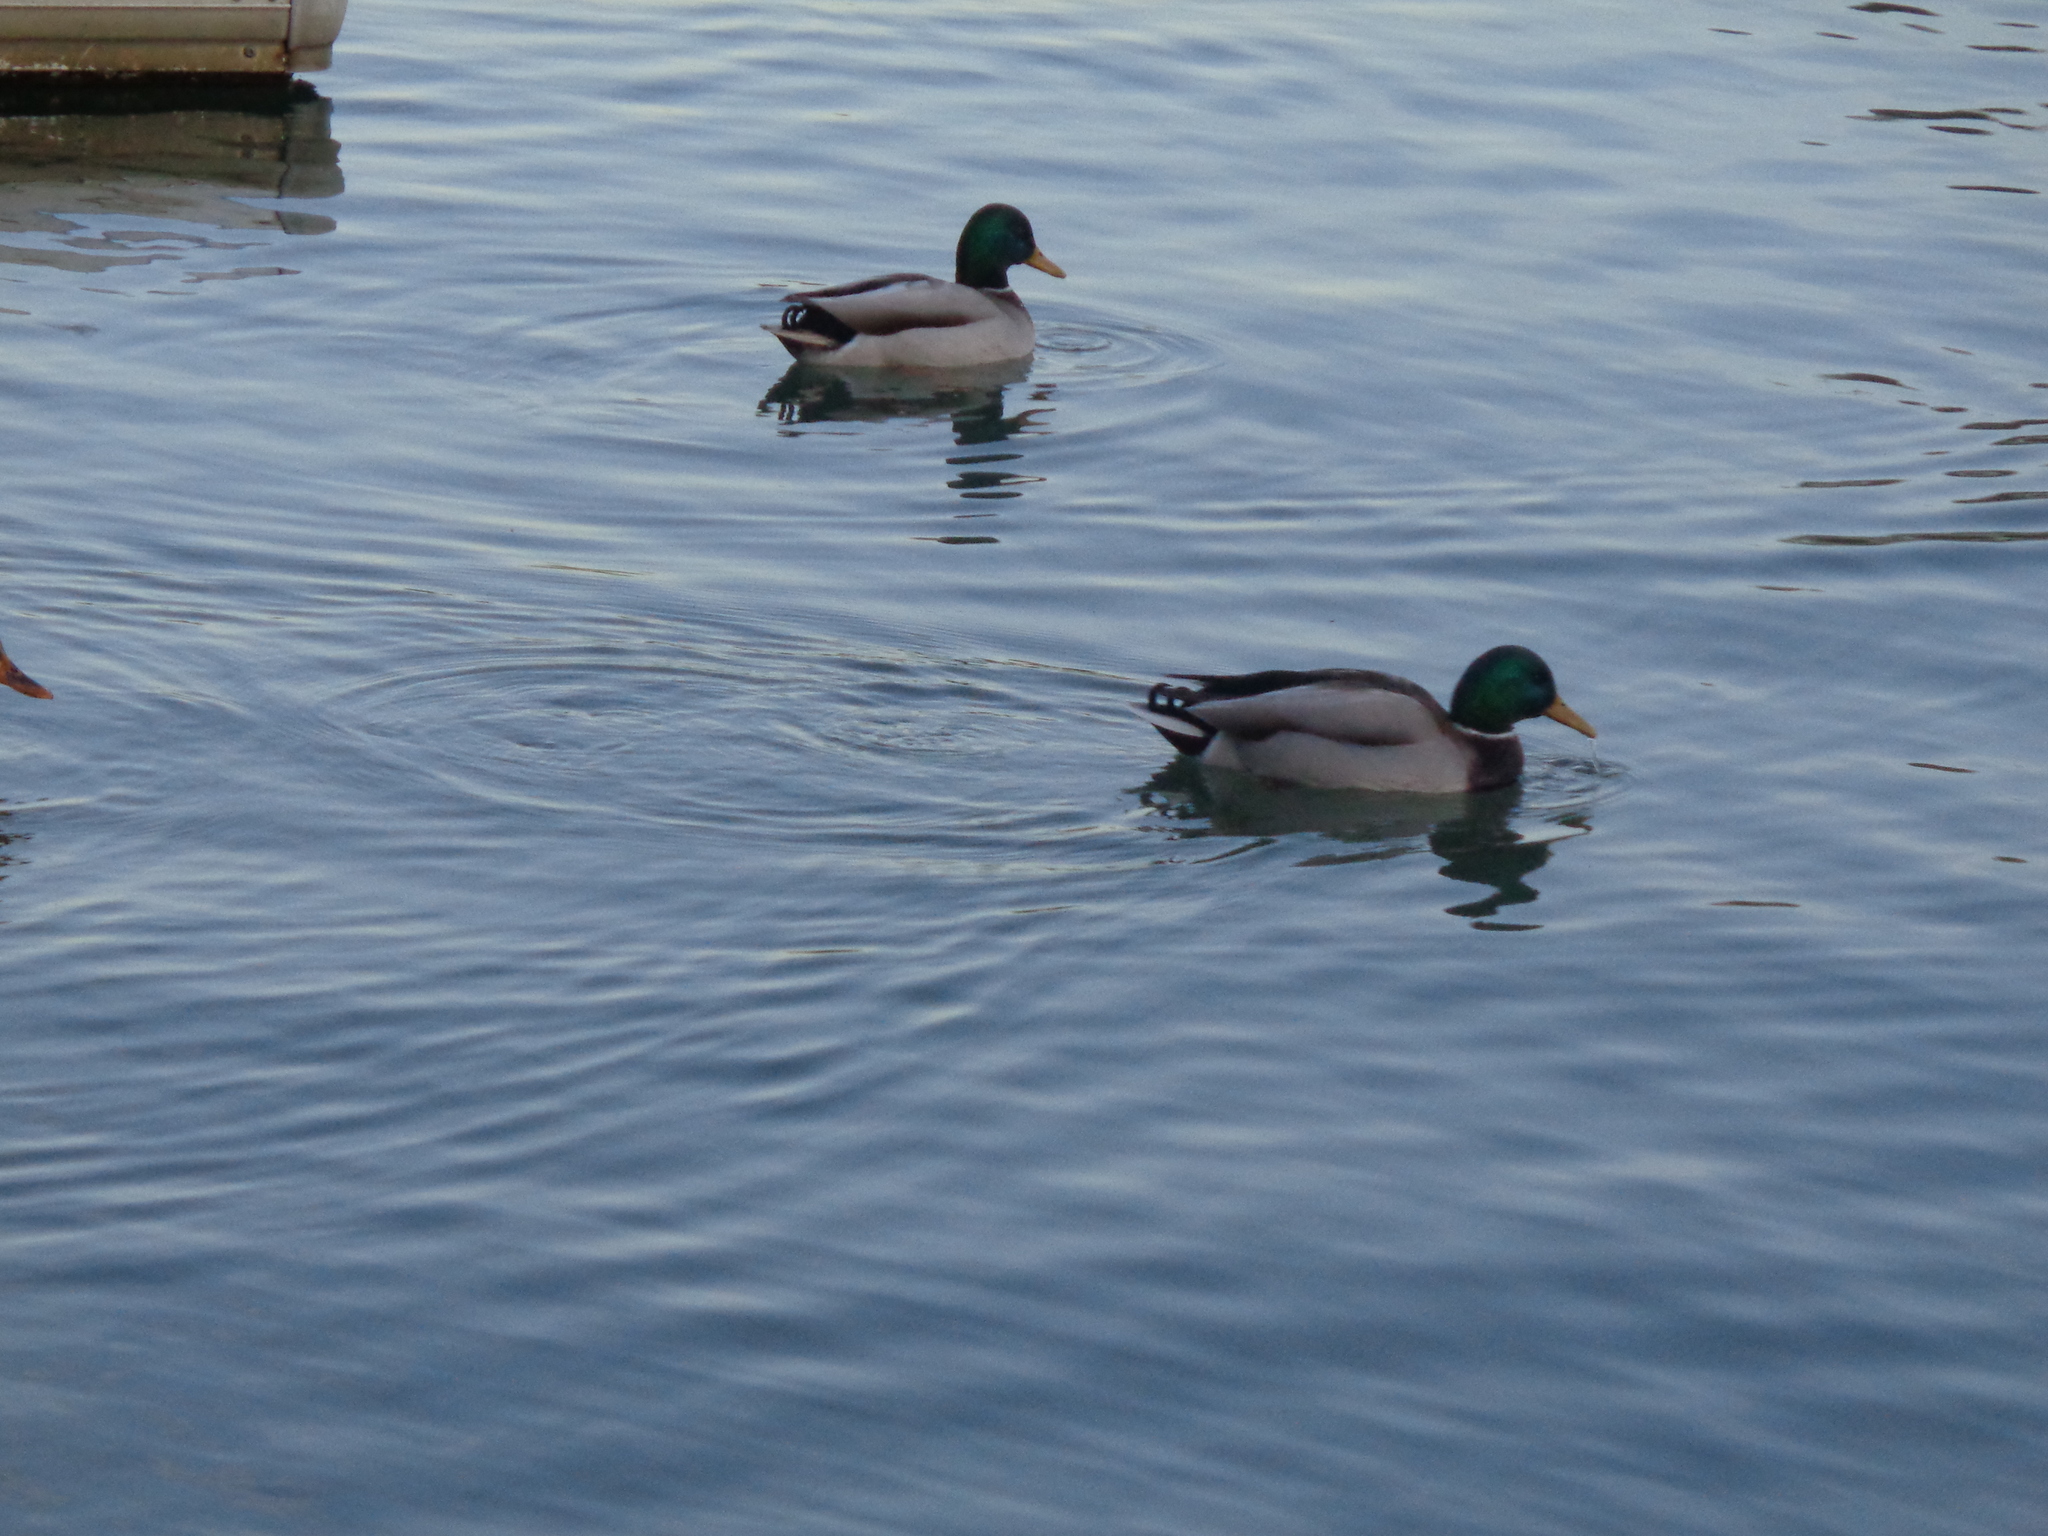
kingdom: Animalia
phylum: Chordata
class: Aves
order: Anseriformes
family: Anatidae
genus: Anas
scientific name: Anas platyrhynchos
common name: Mallard
